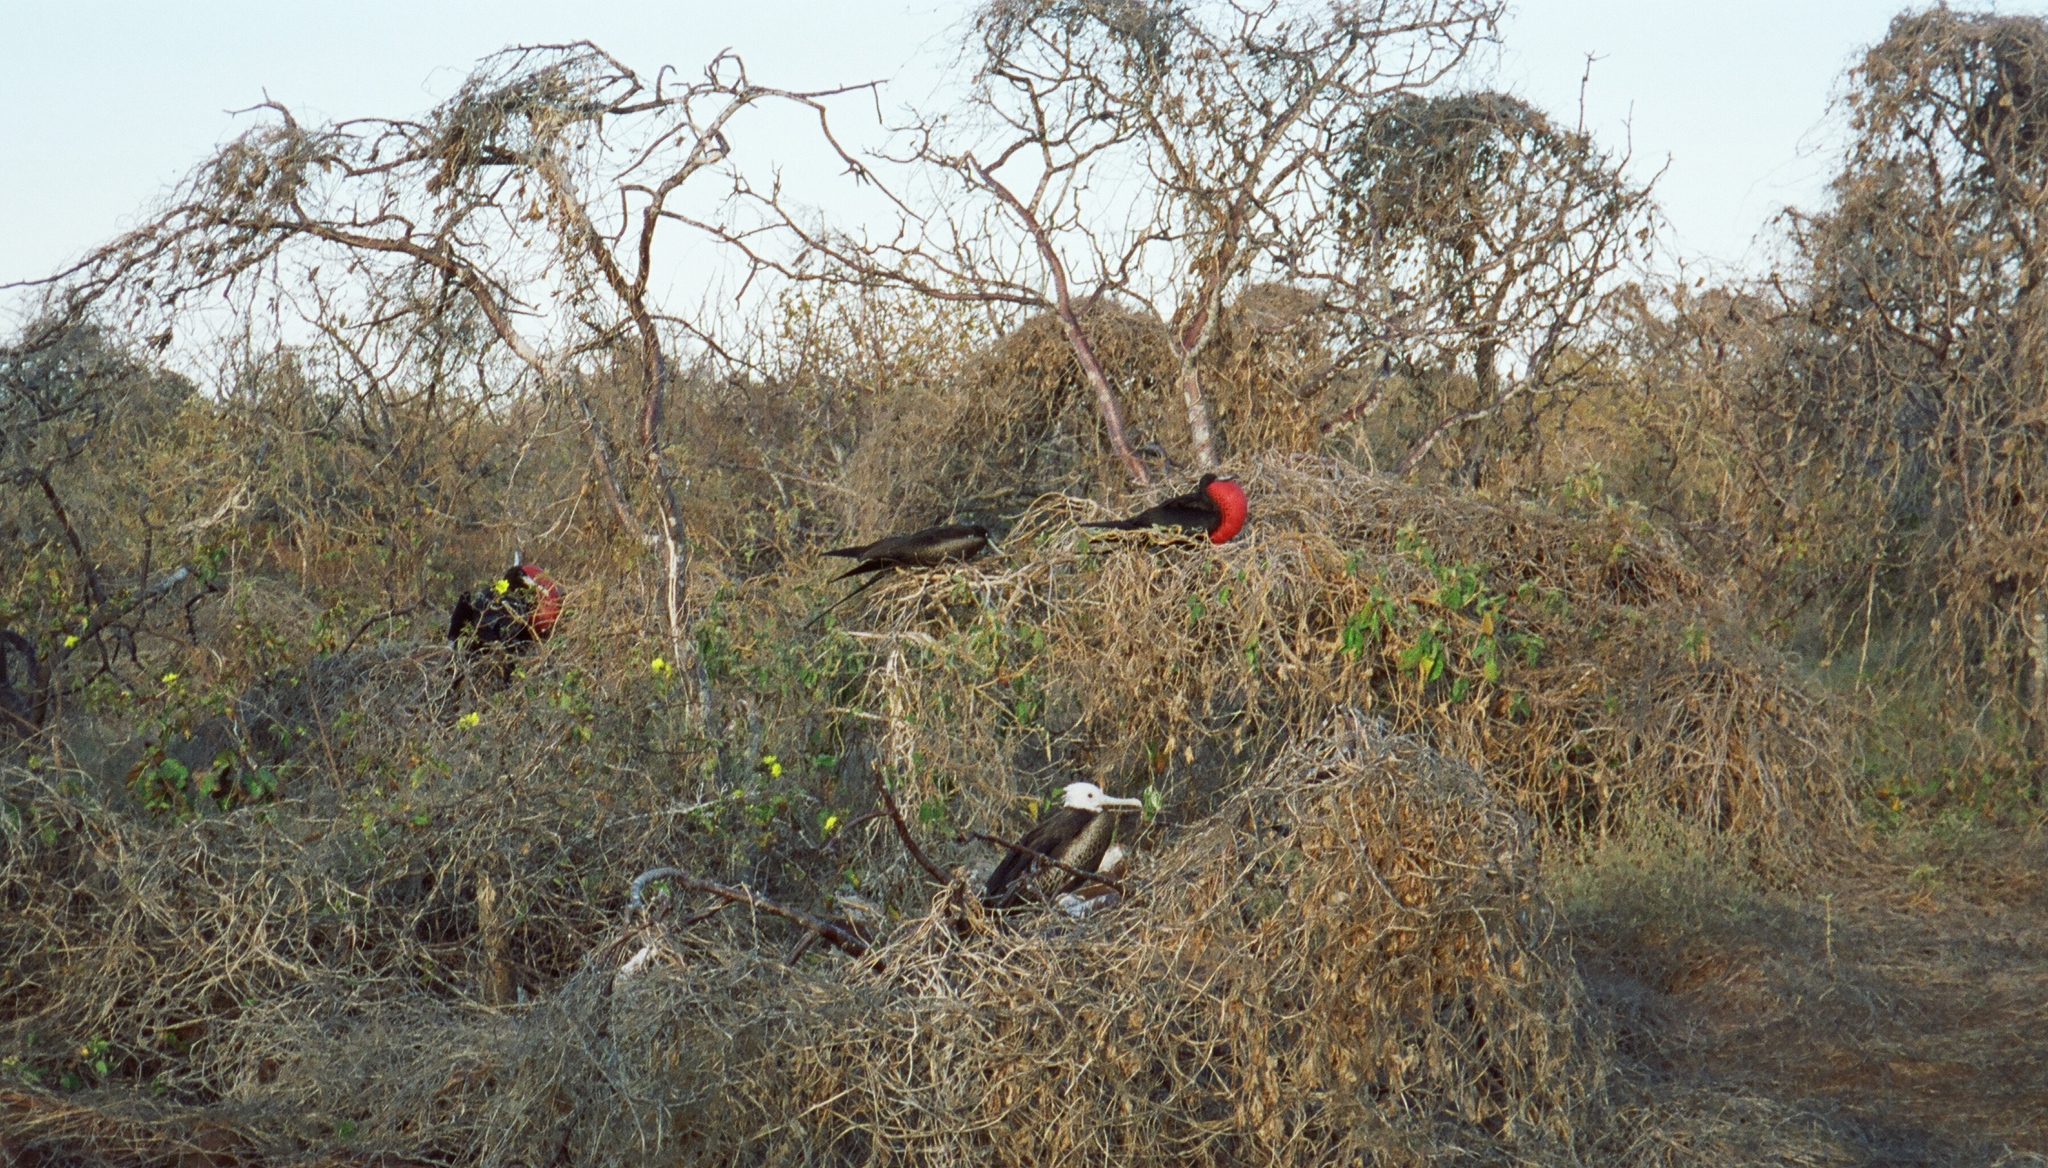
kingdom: Animalia
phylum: Chordata
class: Aves
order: Suliformes
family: Fregatidae
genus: Fregata
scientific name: Fregata magnificens
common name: Magnificent frigatebird
